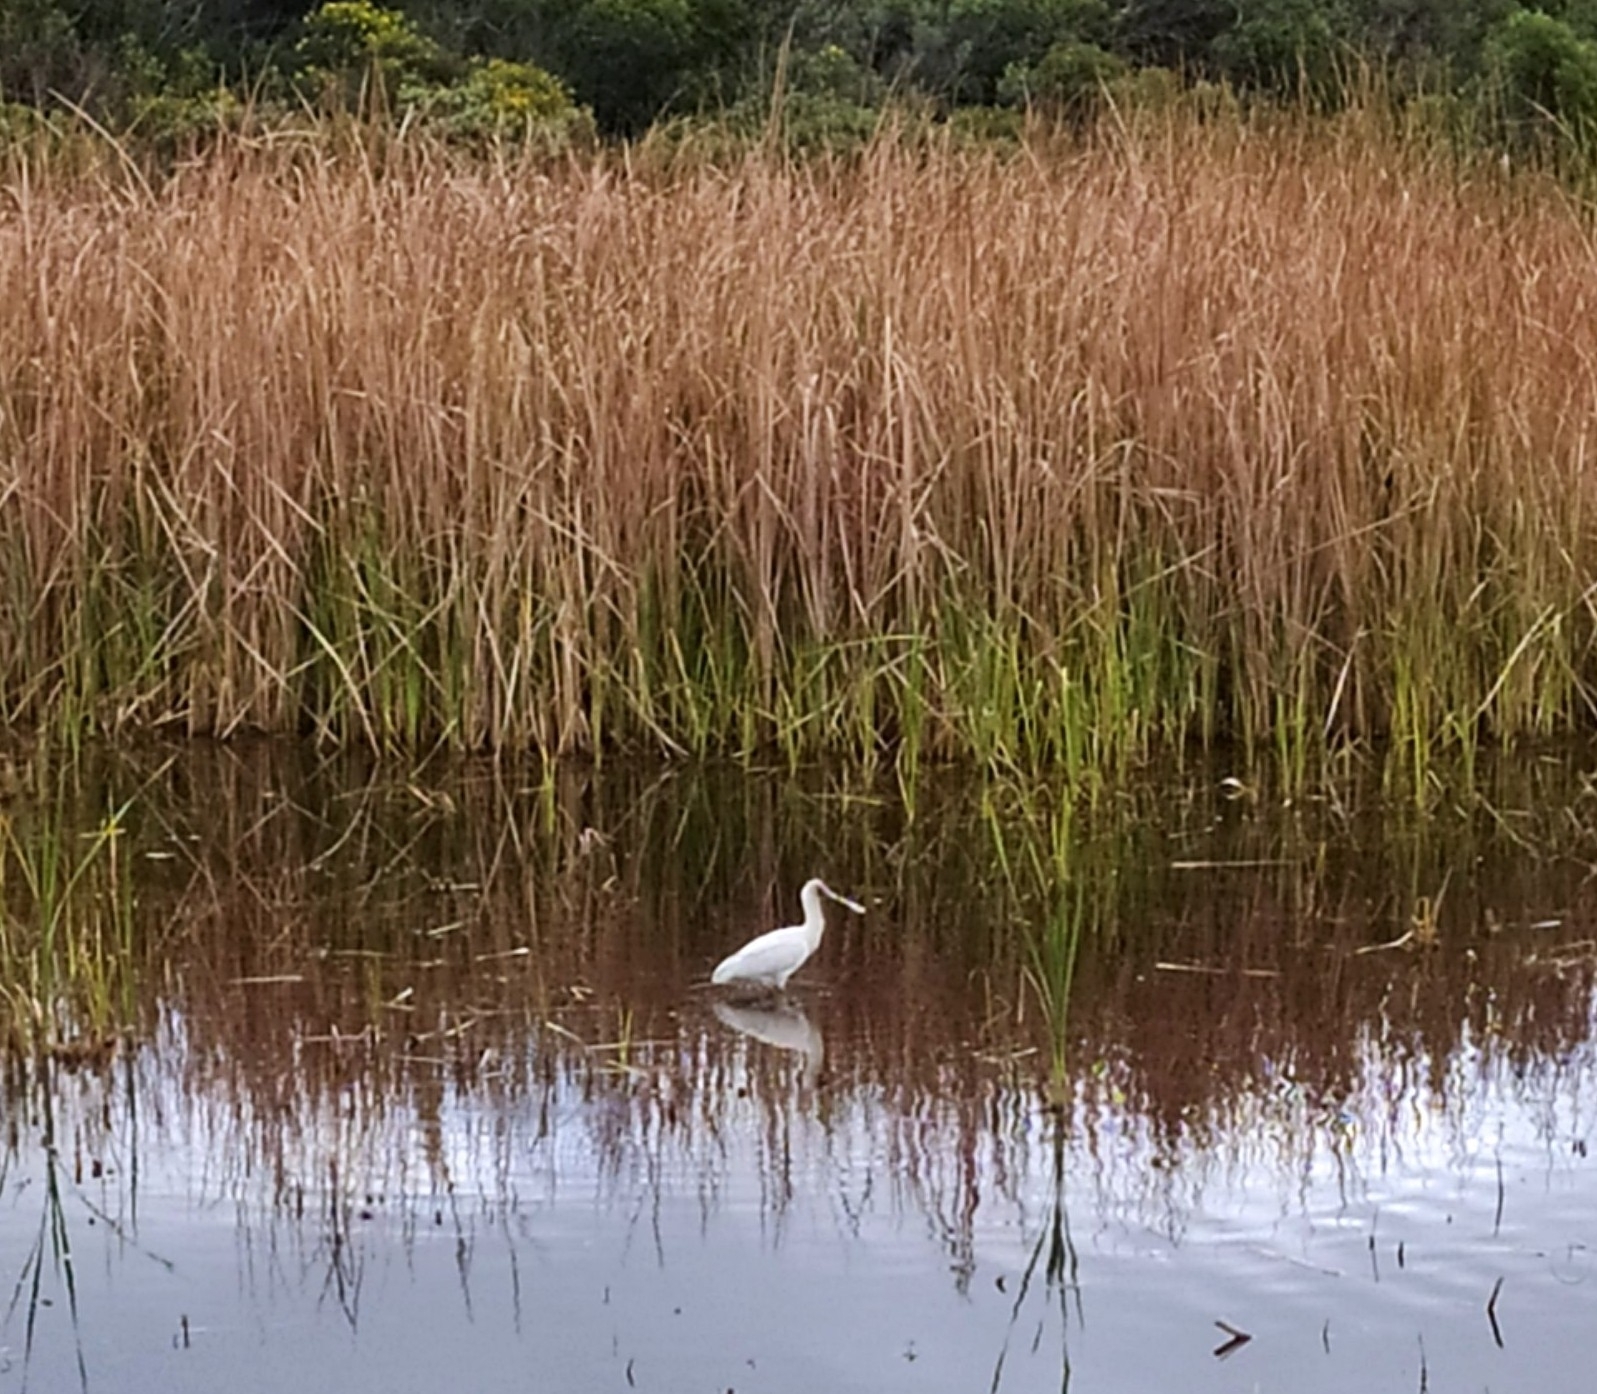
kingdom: Animalia
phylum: Chordata
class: Aves
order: Pelecaniformes
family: Threskiornithidae
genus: Platalea
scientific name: Platalea alba
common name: African spoonbill
